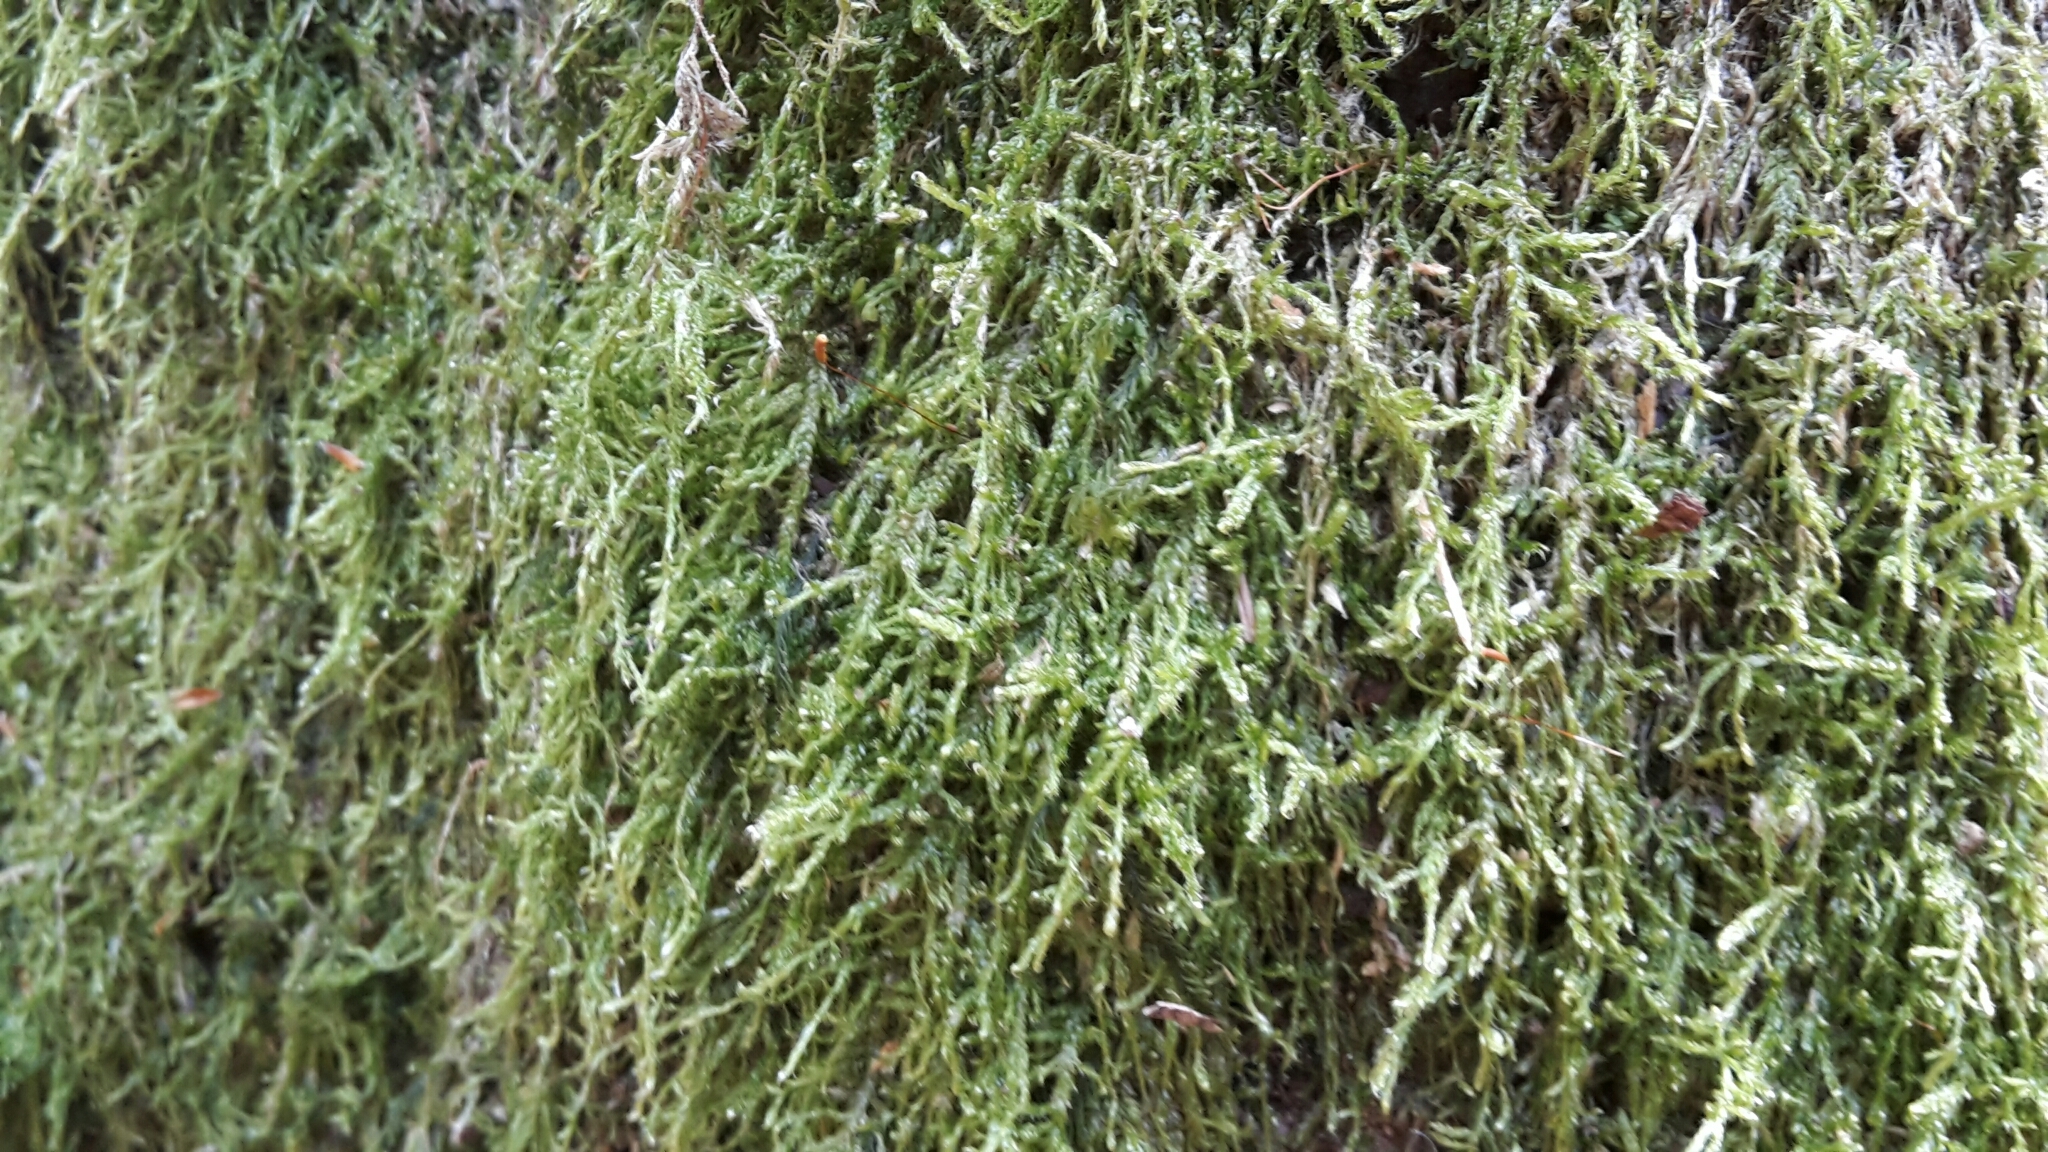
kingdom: Plantae
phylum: Bryophyta
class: Bryopsida
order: Hypnales
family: Hypnaceae
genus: Hypnum
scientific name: Hypnum cupressiforme
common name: Cypress-leaved plait-moss
